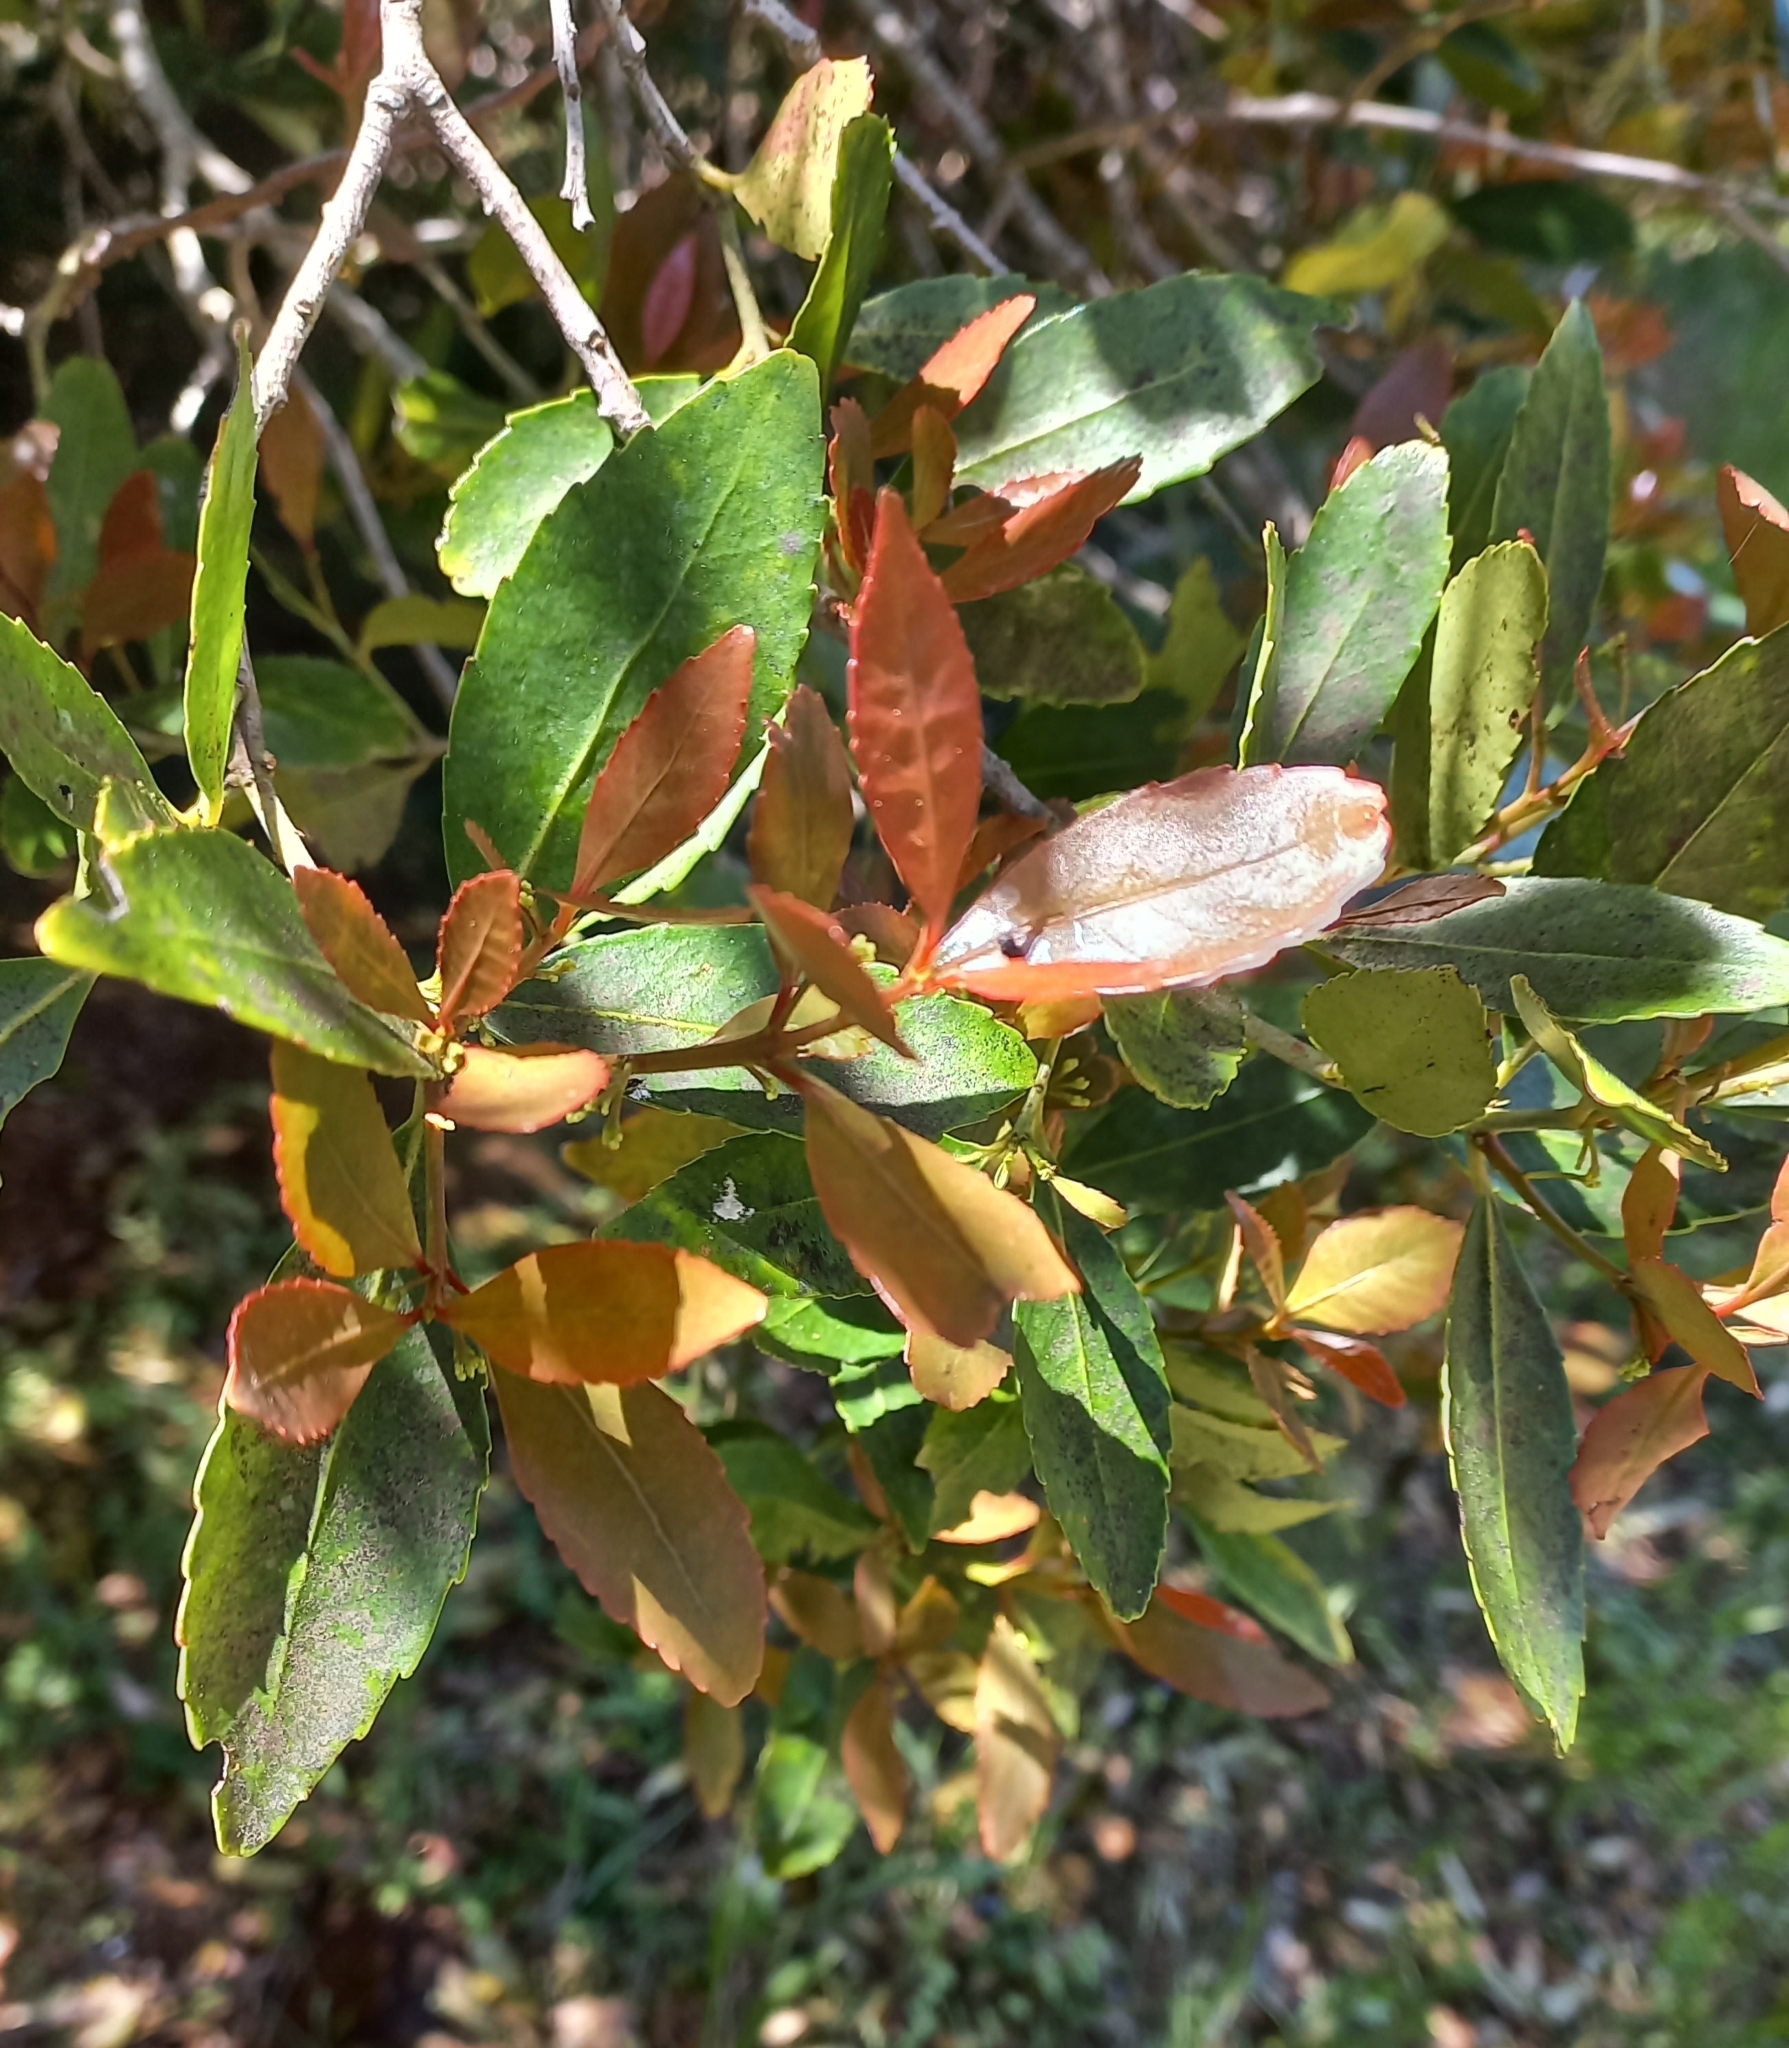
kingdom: Plantae
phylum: Tracheophyta
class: Magnoliopsida
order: Celastrales
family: Celastraceae
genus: Elaeodendron
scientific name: Elaeodendron schinoides
